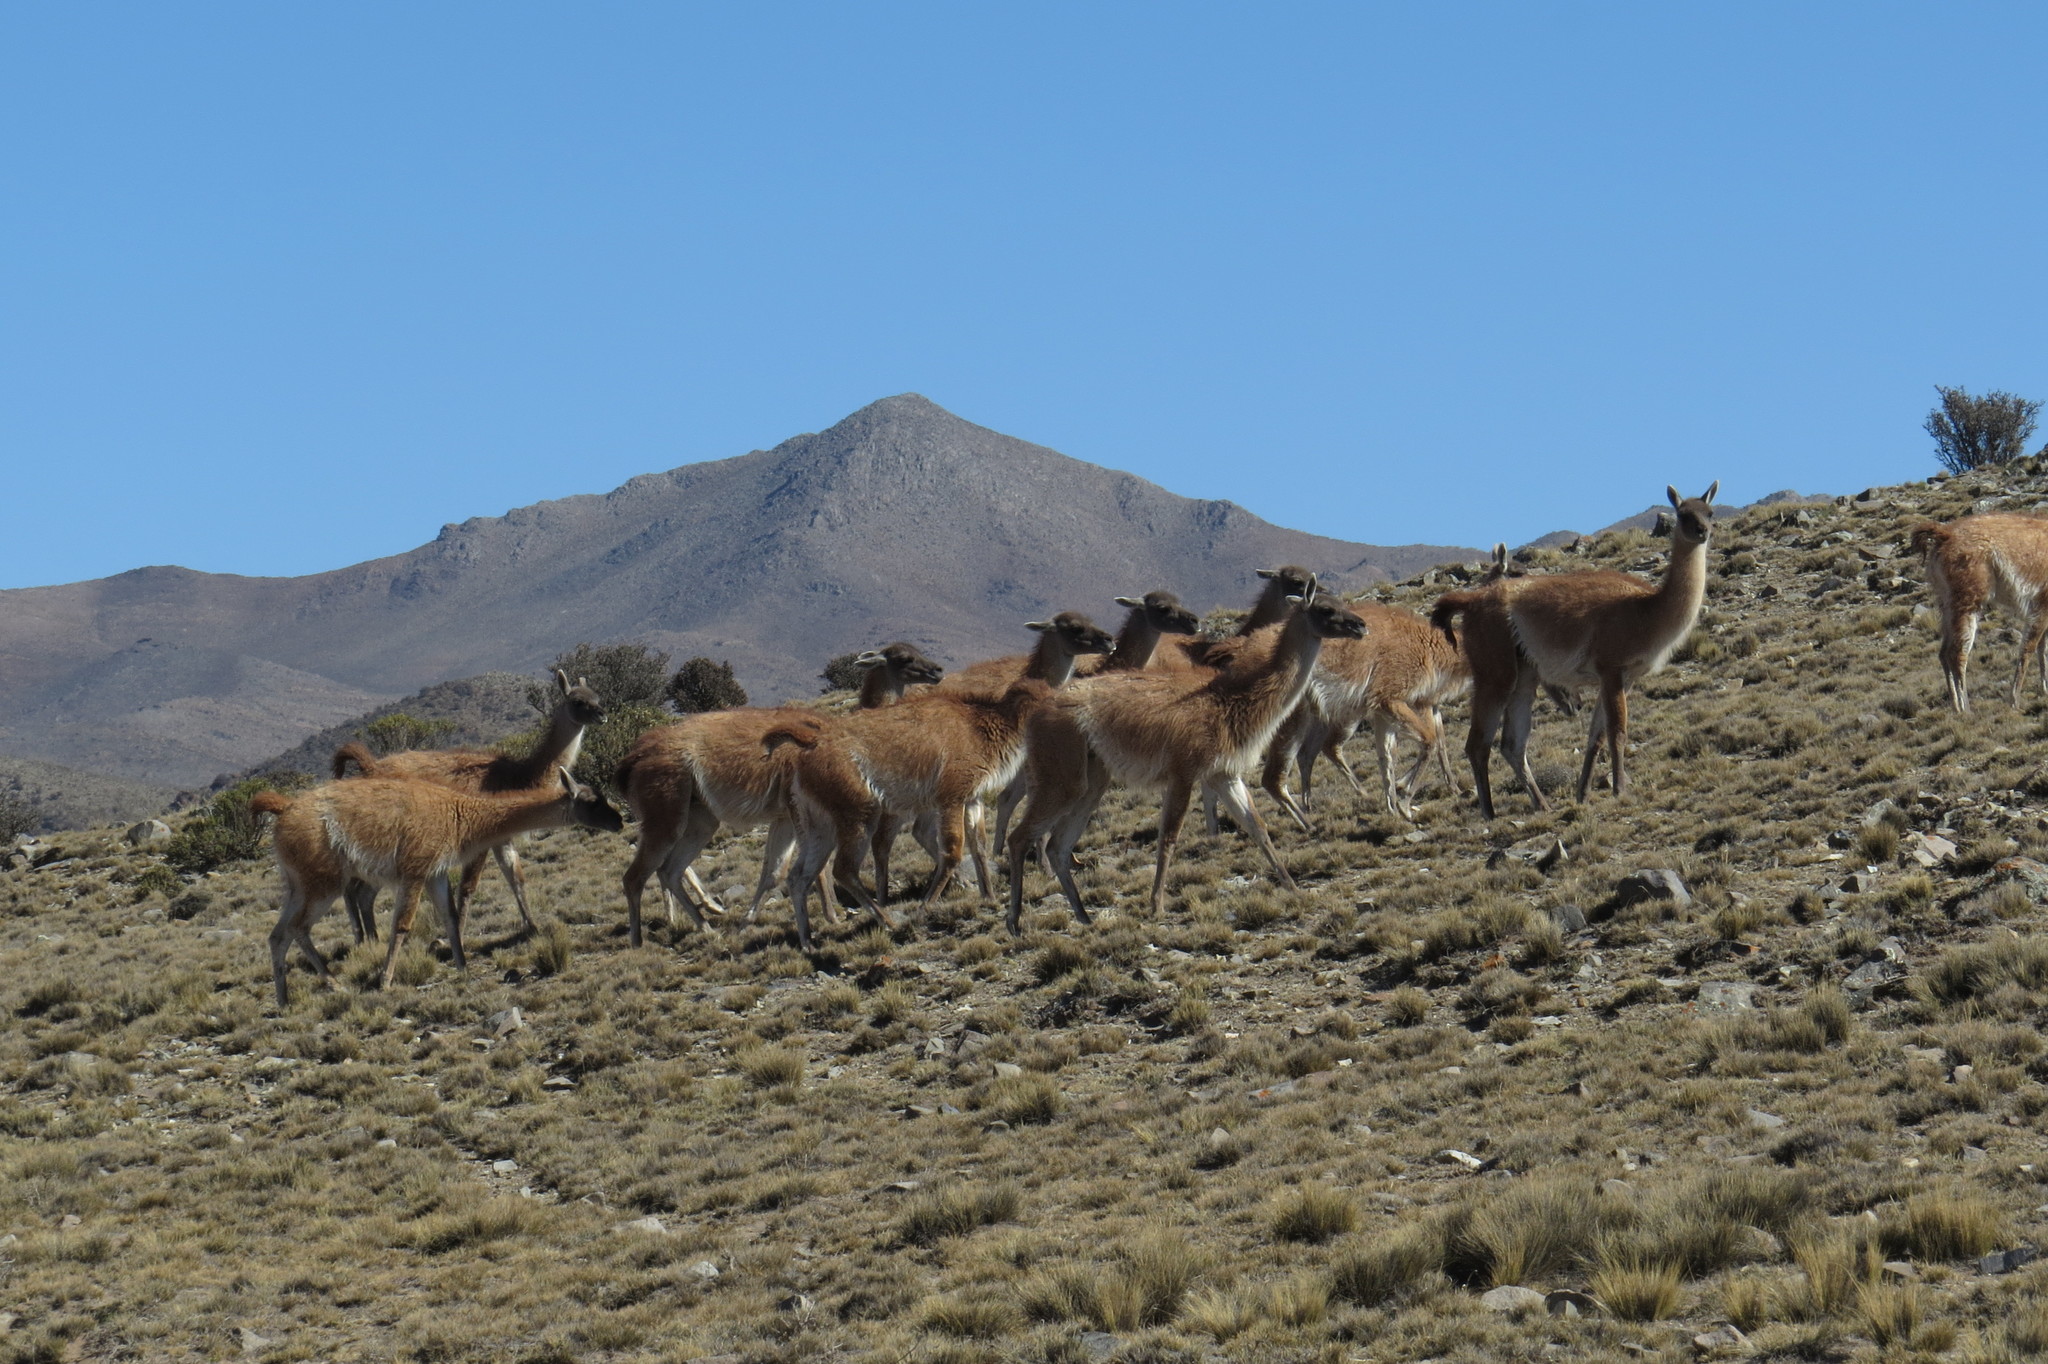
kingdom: Animalia
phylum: Chordata
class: Mammalia
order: Artiodactyla
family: Camelidae
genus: Lama
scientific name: Lama glama
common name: Llama
